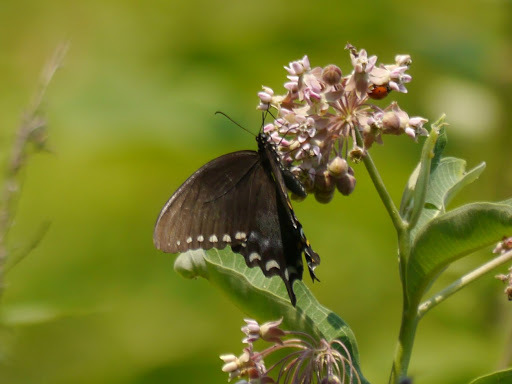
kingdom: Animalia
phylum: Arthropoda
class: Insecta
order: Lepidoptera
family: Papilionidae
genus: Papilio
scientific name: Papilio troilus
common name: Spicebush swallowtail
